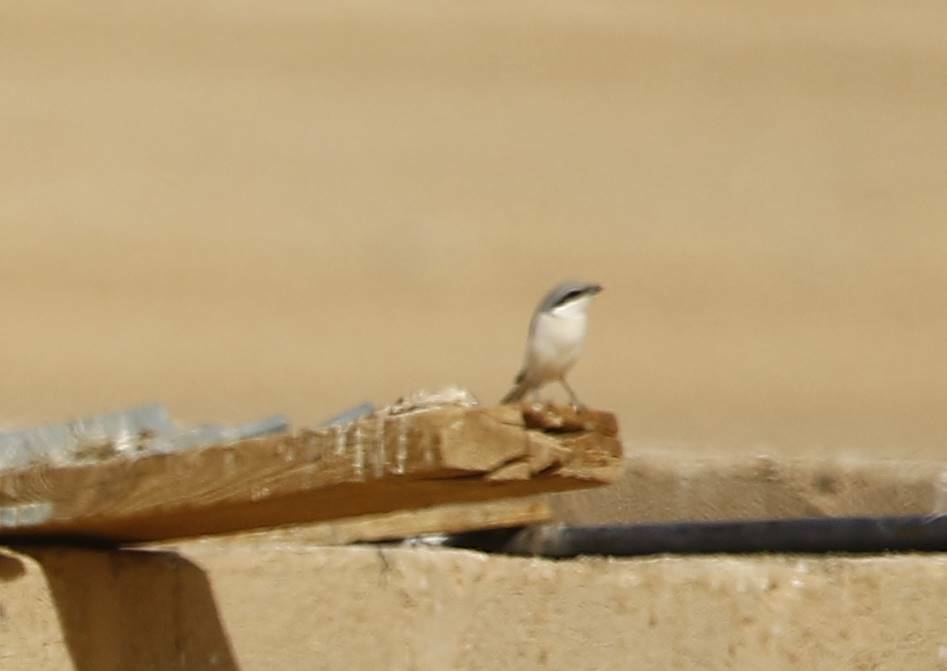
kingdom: Animalia
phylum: Chordata
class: Aves
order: Passeriformes
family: Laniidae
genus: Lanius
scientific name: Lanius excubitor
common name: Great grey shrike
